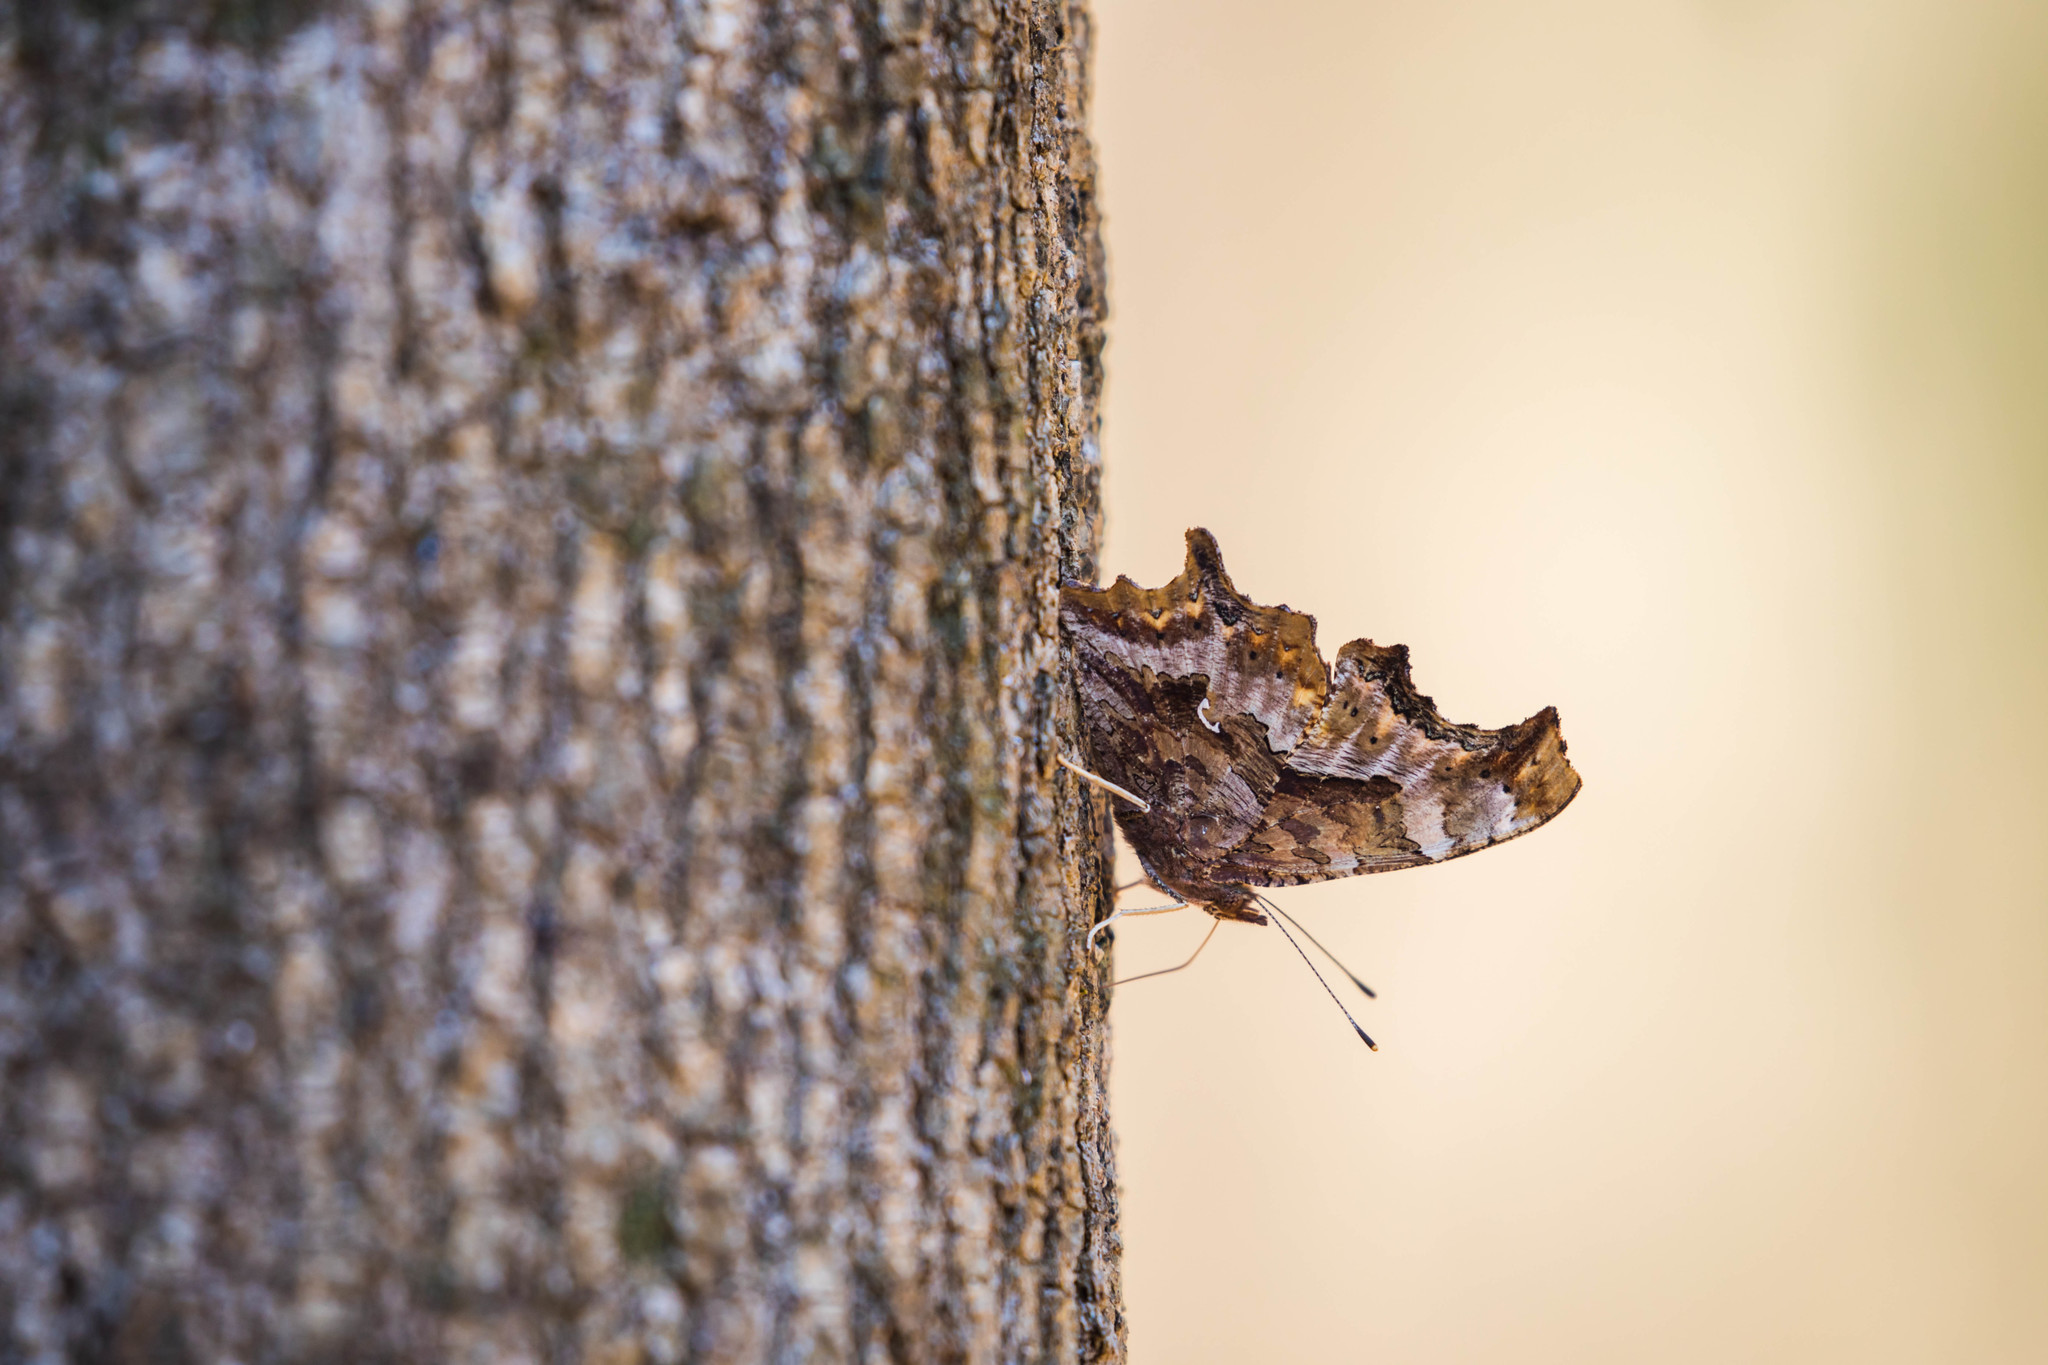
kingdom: Animalia
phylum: Arthropoda
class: Insecta
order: Lepidoptera
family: Nymphalidae
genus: Polygonia
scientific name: Polygonia comma
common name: Eastern comma
